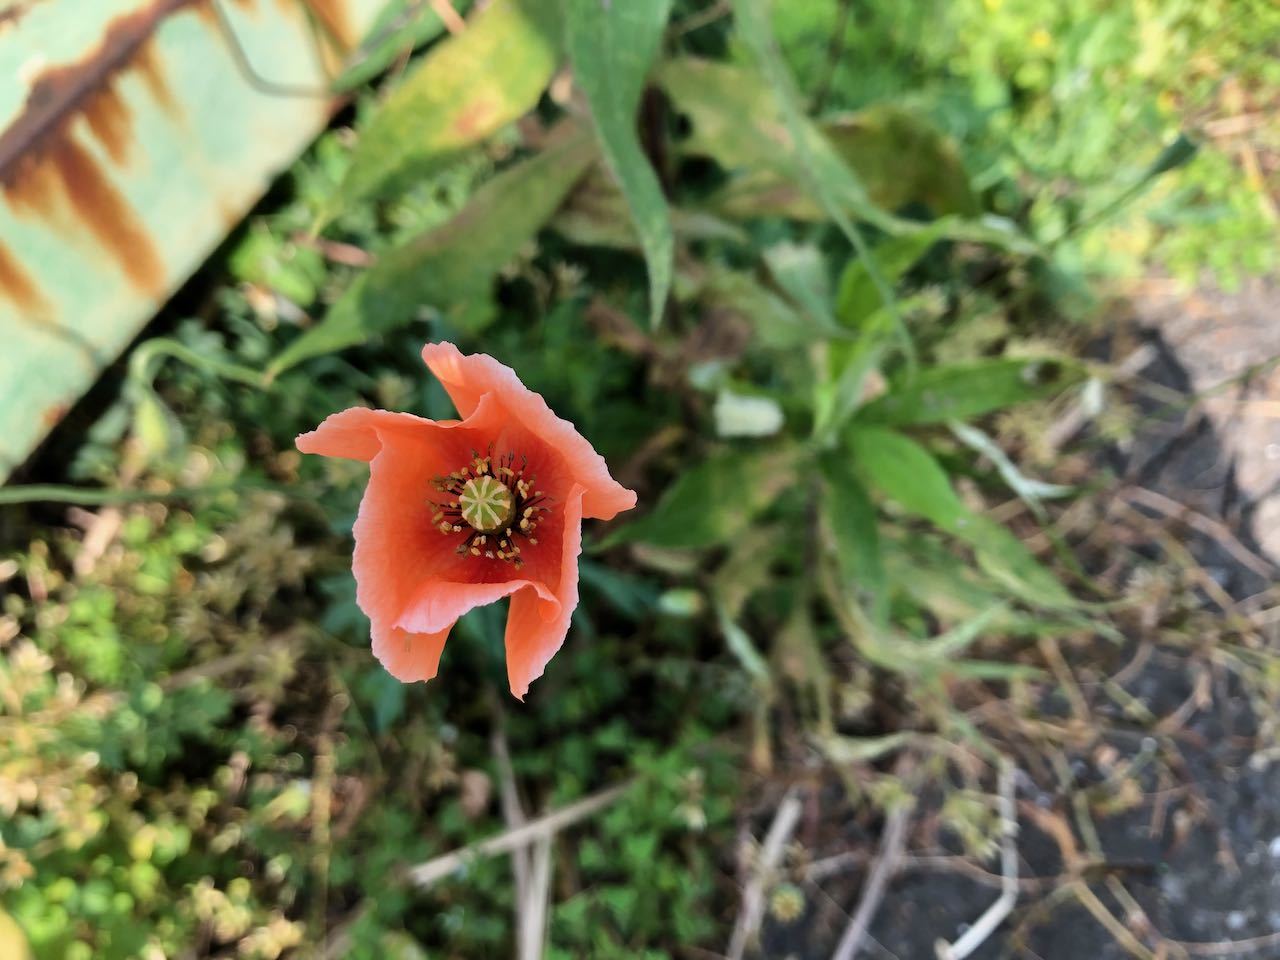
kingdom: Plantae
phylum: Tracheophyta
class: Magnoliopsida
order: Ranunculales
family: Papaveraceae
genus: Papaver
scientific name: Papaver dubium
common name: Long-headed poppy
